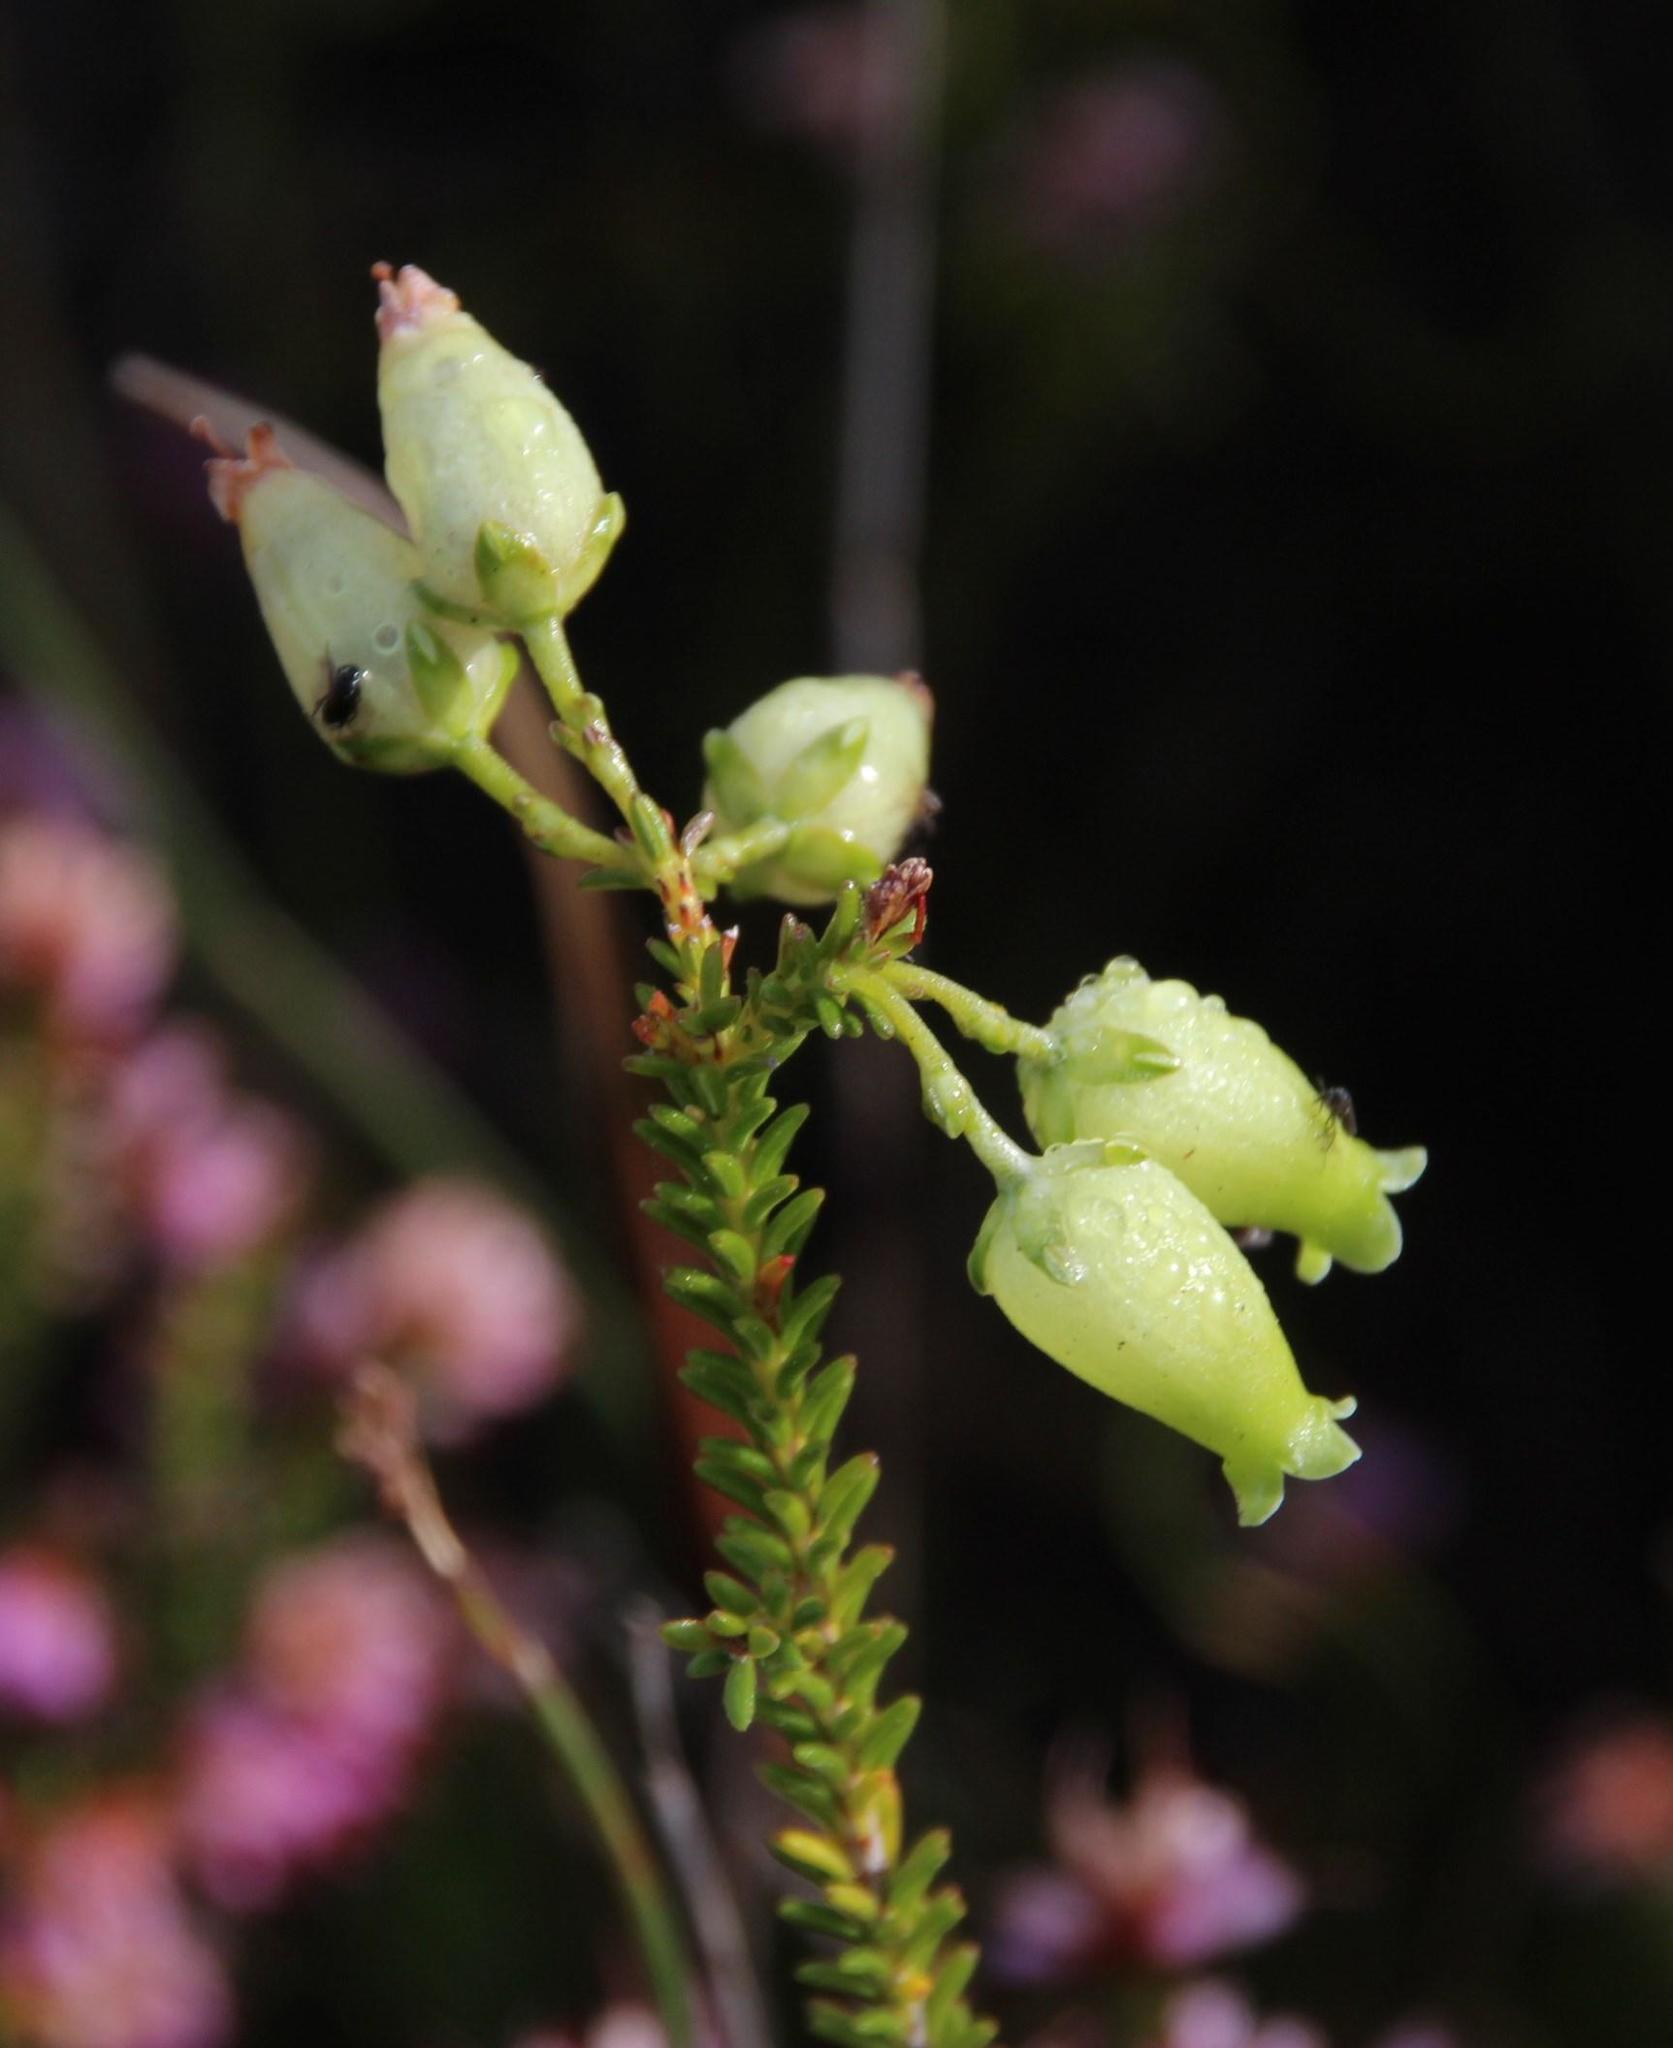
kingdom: Plantae
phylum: Tracheophyta
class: Magnoliopsida
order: Ericales
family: Ericaceae
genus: Erica
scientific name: Erica urna-viridis
